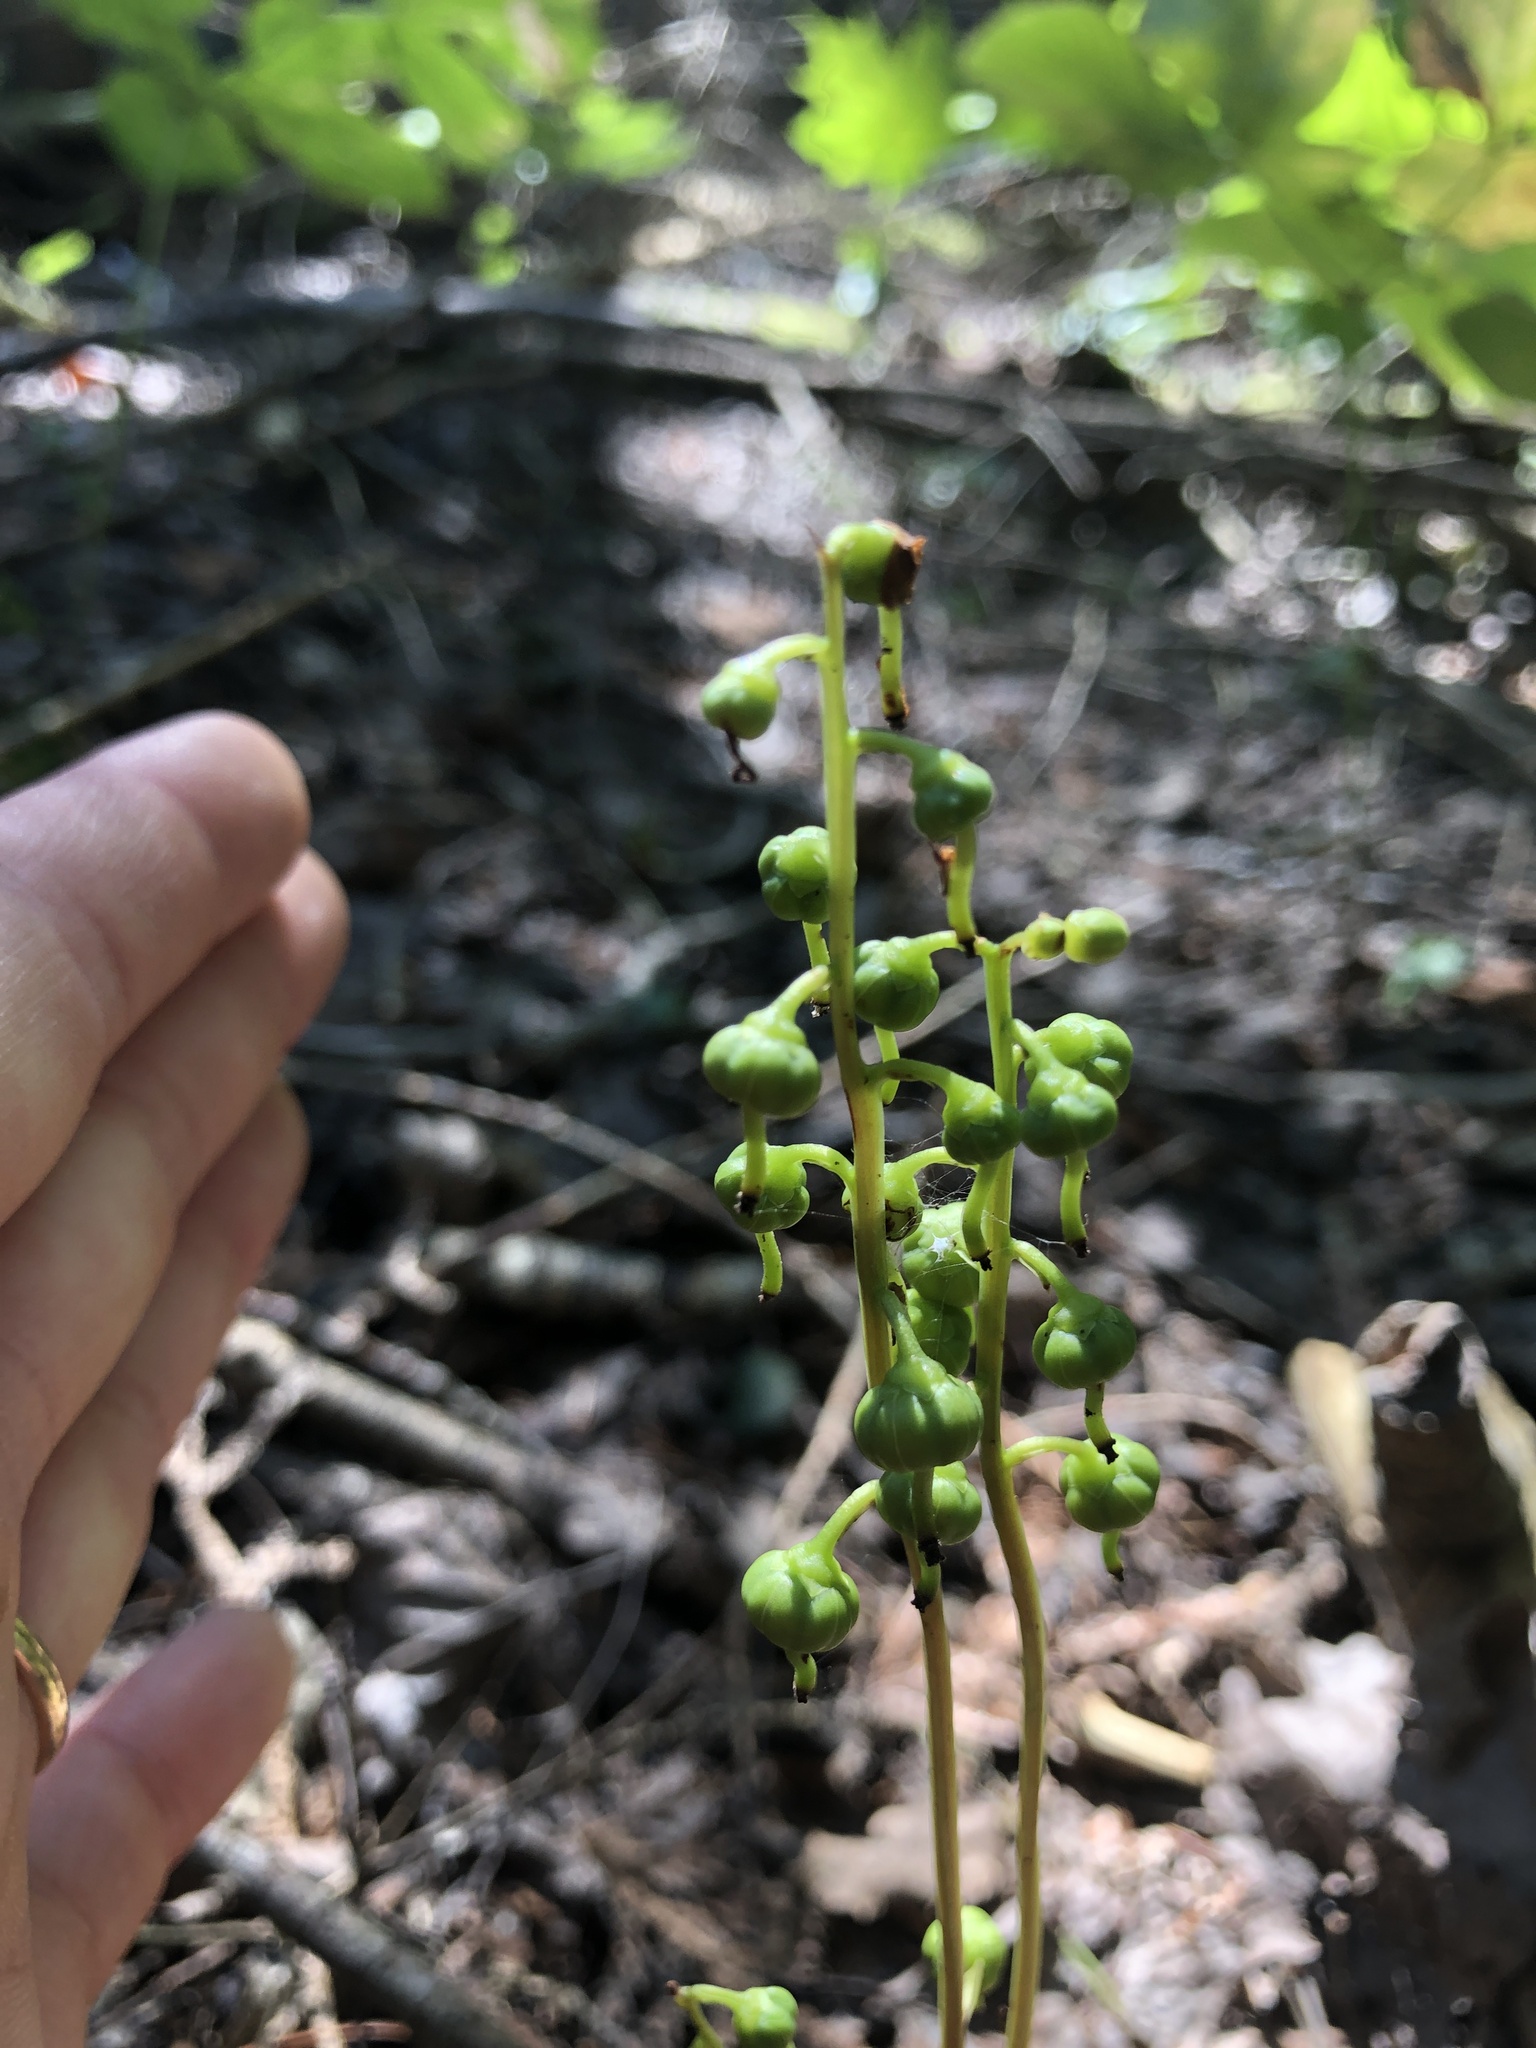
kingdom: Plantae
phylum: Tracheophyta
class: Magnoliopsida
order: Ericales
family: Ericaceae
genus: Pyrola
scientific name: Pyrola chlorantha
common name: Green wintergreen
